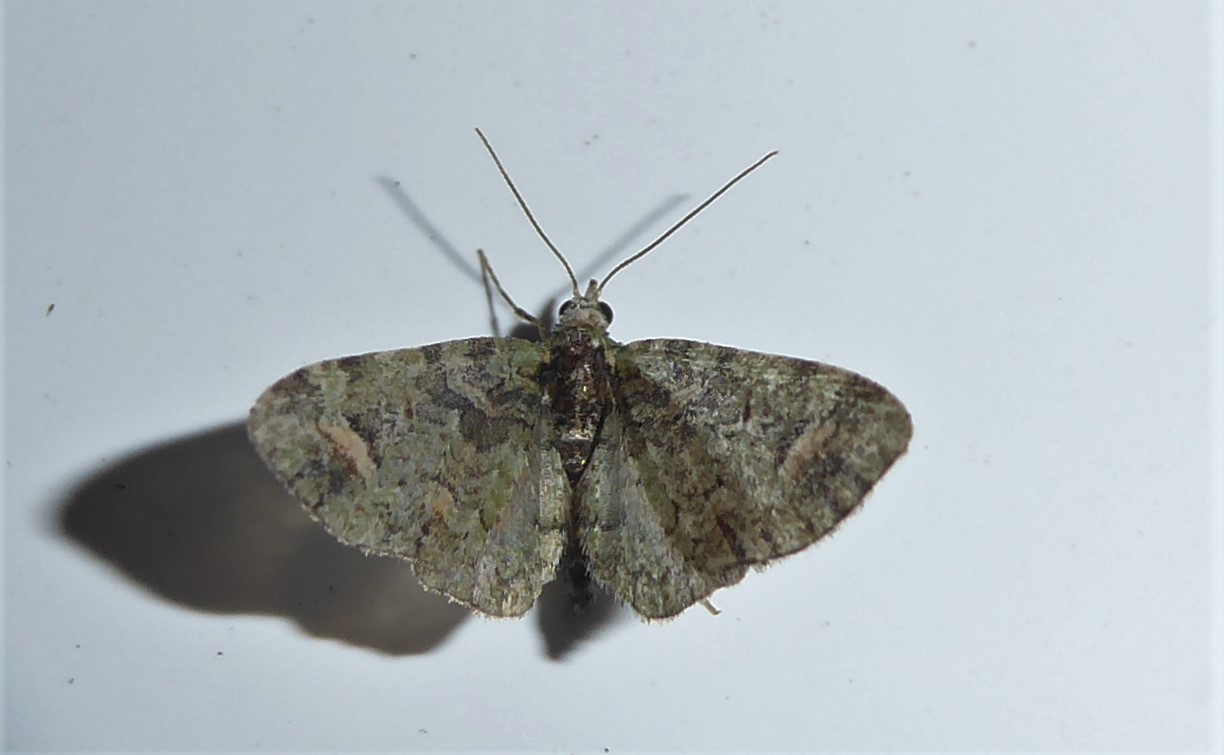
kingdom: Animalia
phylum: Arthropoda
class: Insecta
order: Lepidoptera
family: Geometridae
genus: Idaea
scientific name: Idaea mutanda
